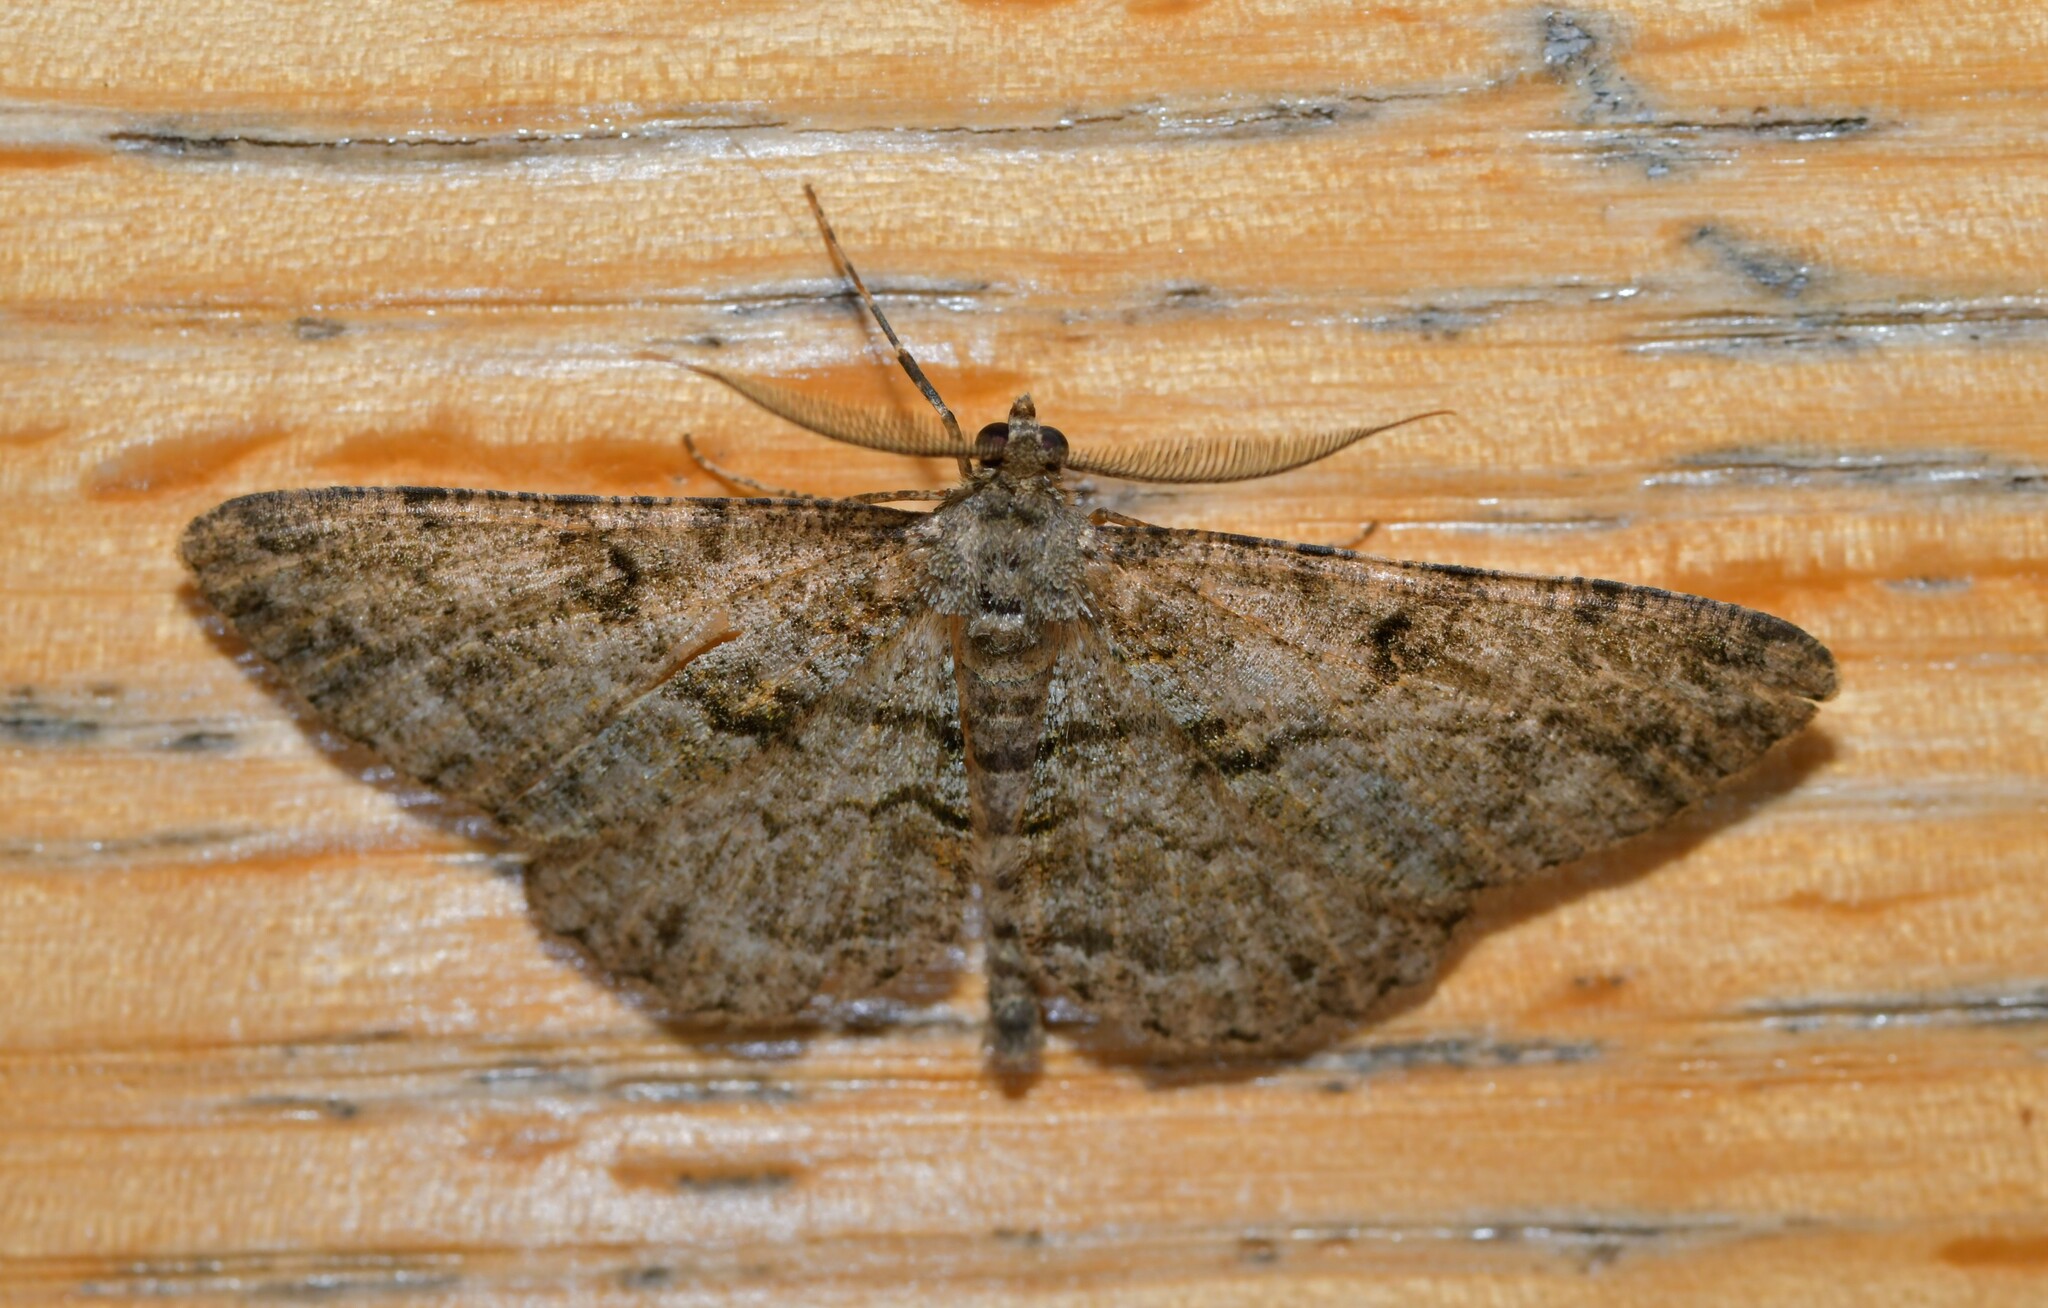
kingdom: Animalia
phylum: Arthropoda
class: Insecta
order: Lepidoptera
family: Geometridae
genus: Peribatodes
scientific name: Peribatodes rhomboidaria
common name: Willow beauty
